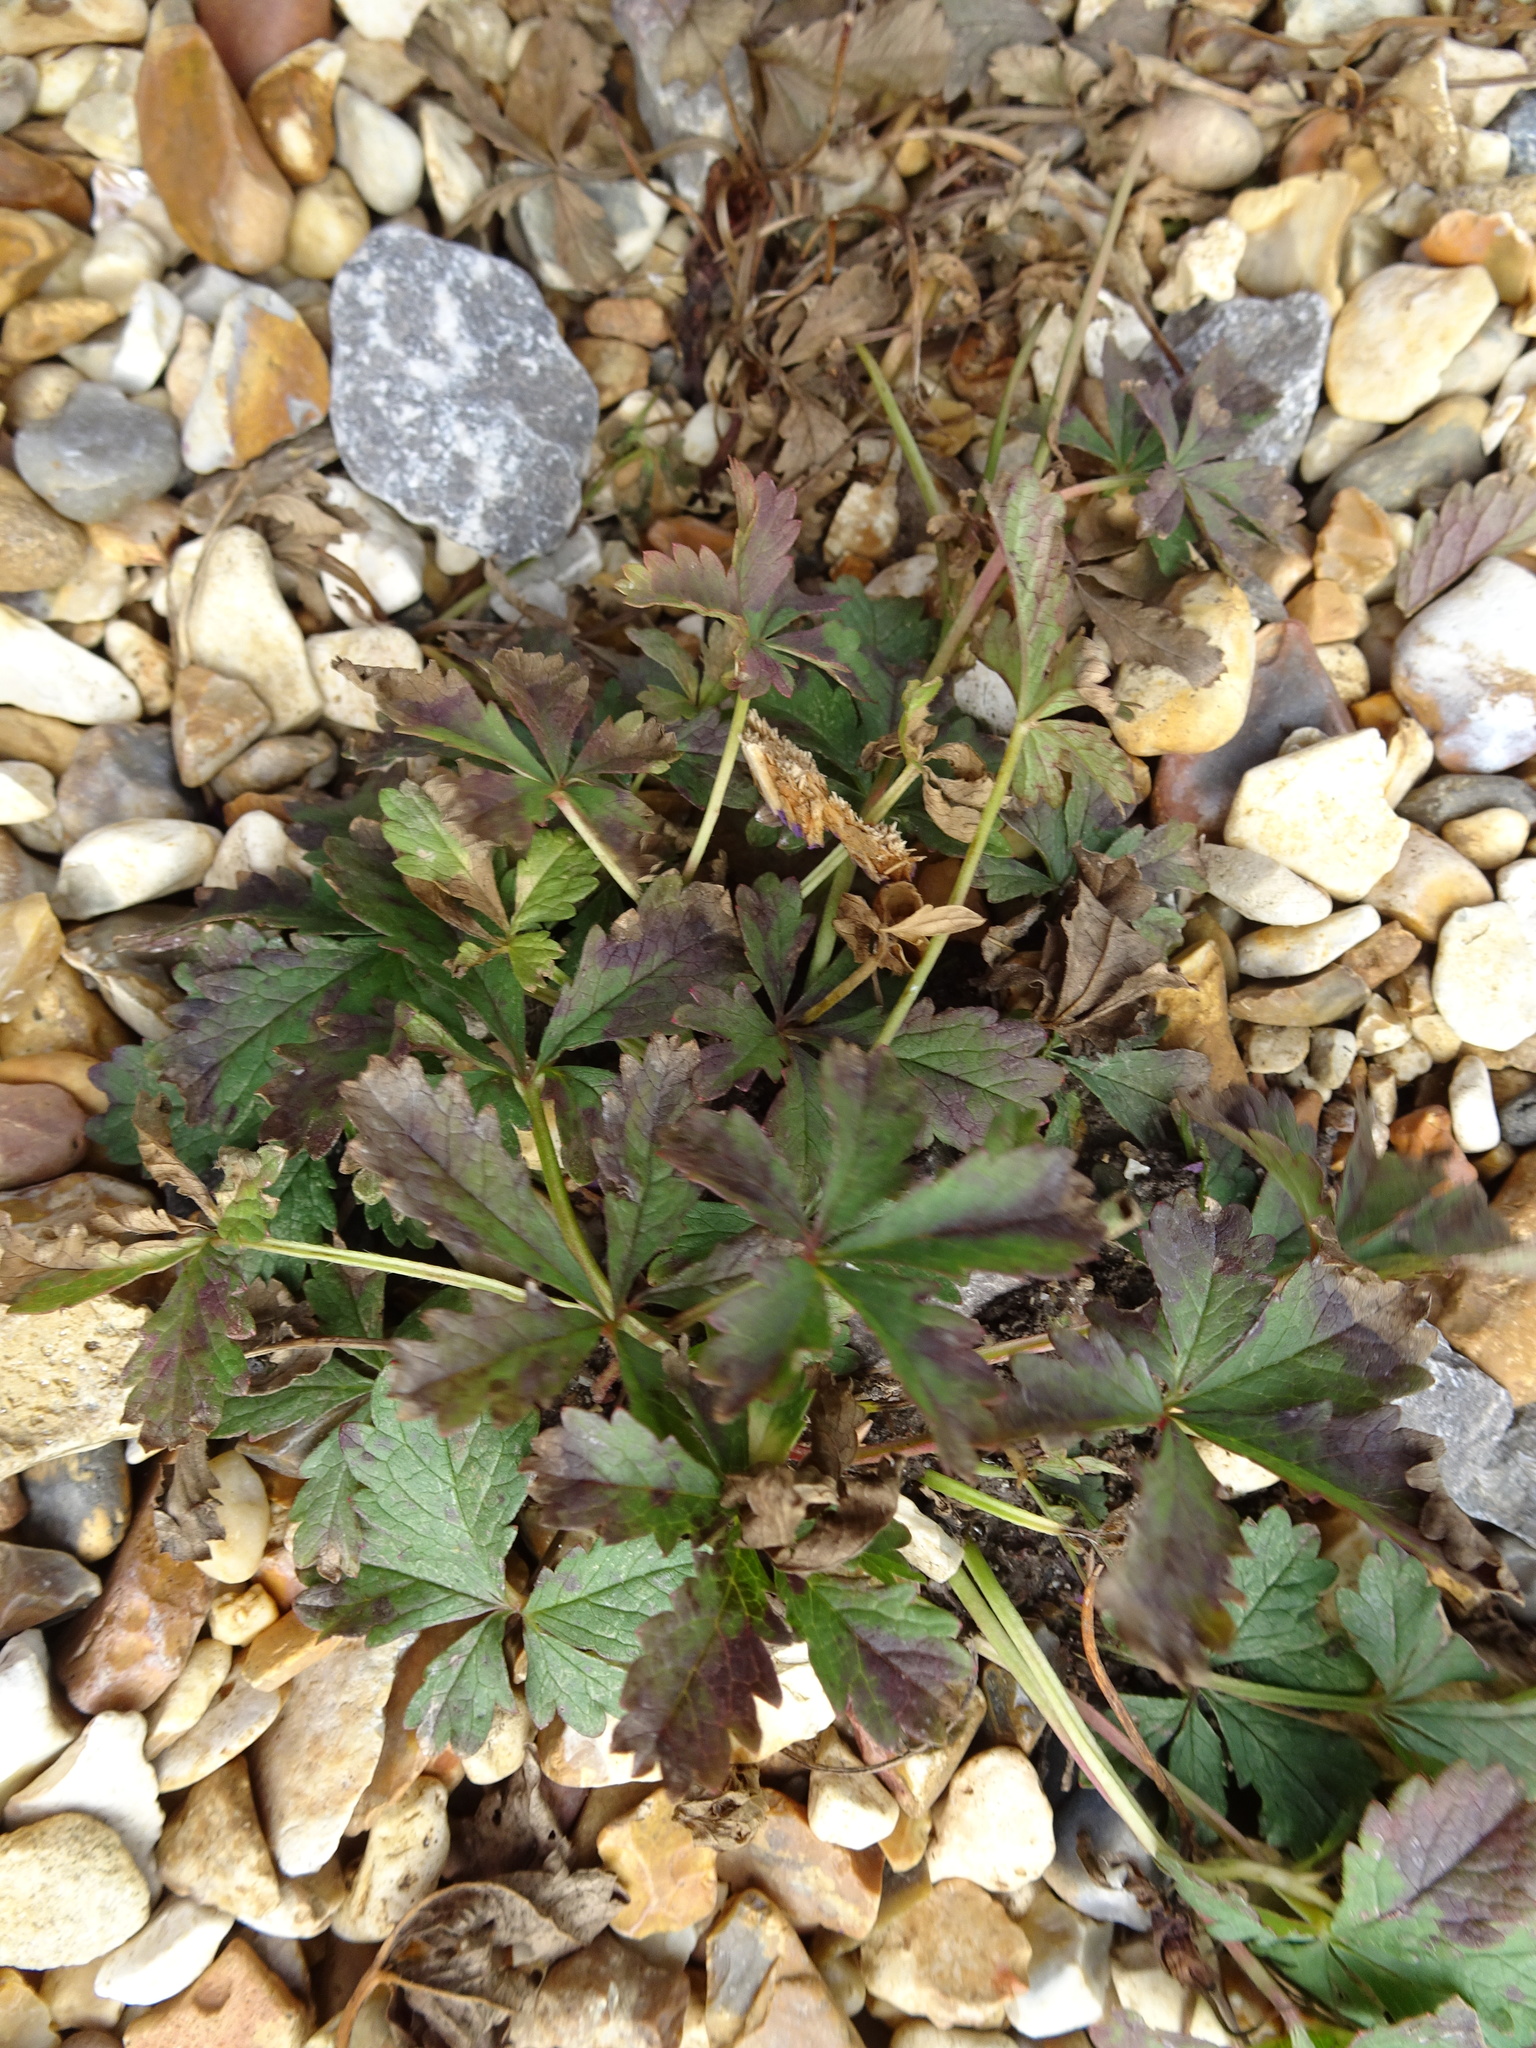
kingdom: Plantae
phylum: Tracheophyta
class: Magnoliopsida
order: Rosales
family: Rosaceae
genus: Potentilla
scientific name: Potentilla reptans
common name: Creeping cinquefoil
